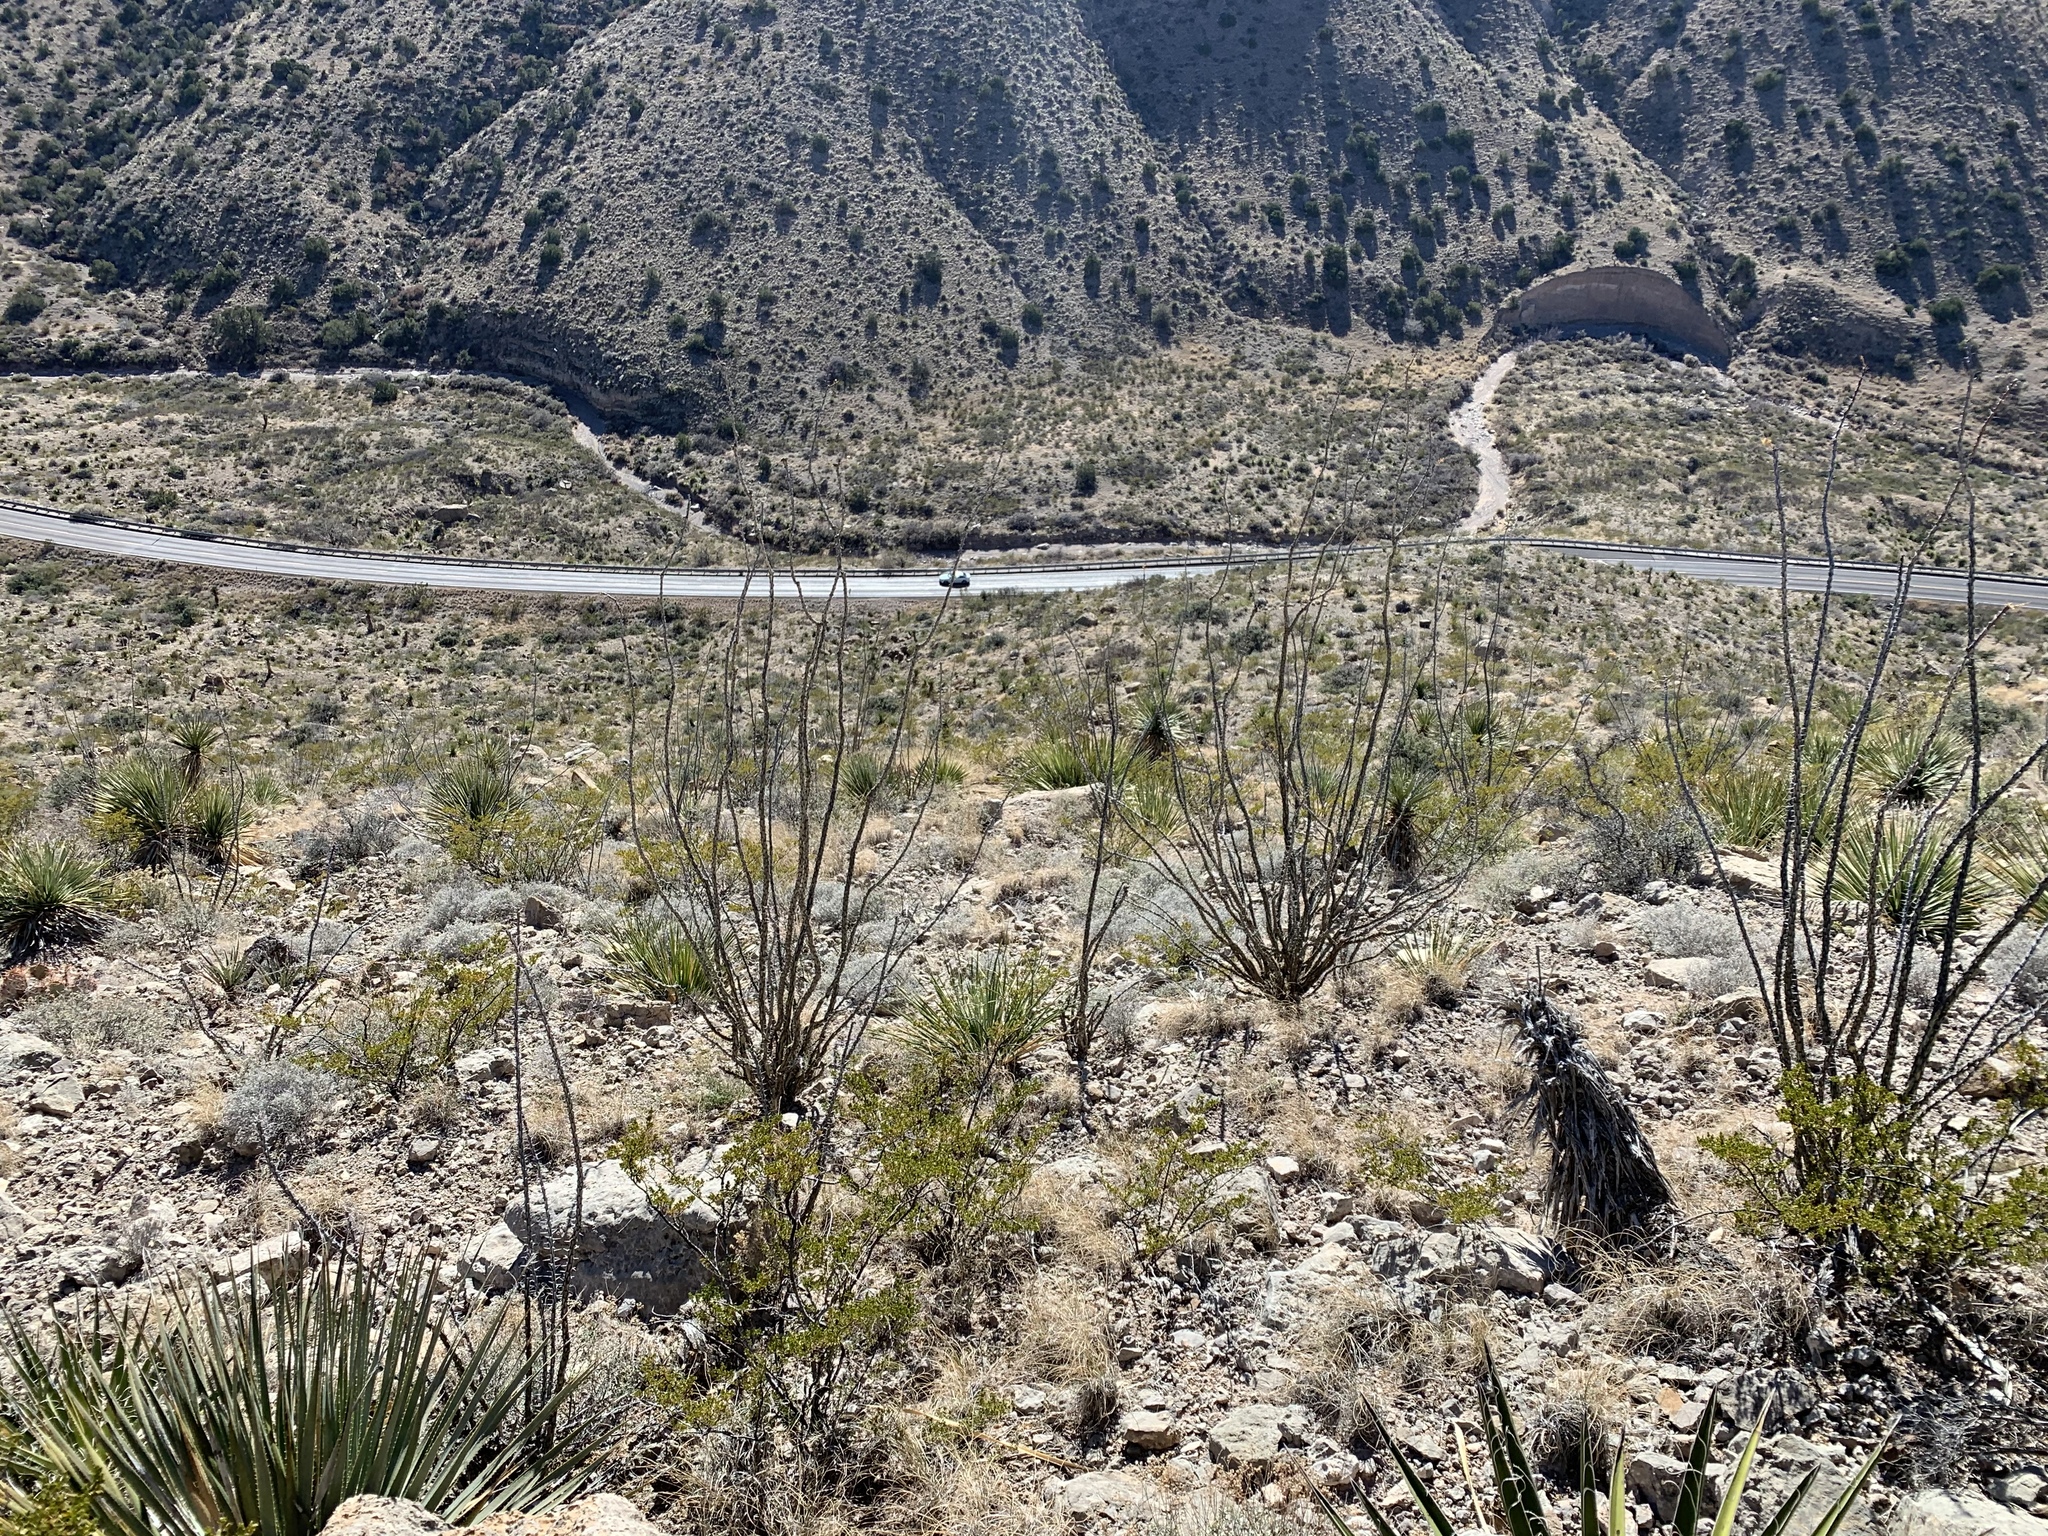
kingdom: Plantae
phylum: Tracheophyta
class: Magnoliopsida
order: Ericales
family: Fouquieriaceae
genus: Fouquieria
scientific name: Fouquieria splendens
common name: Vine-cactus
